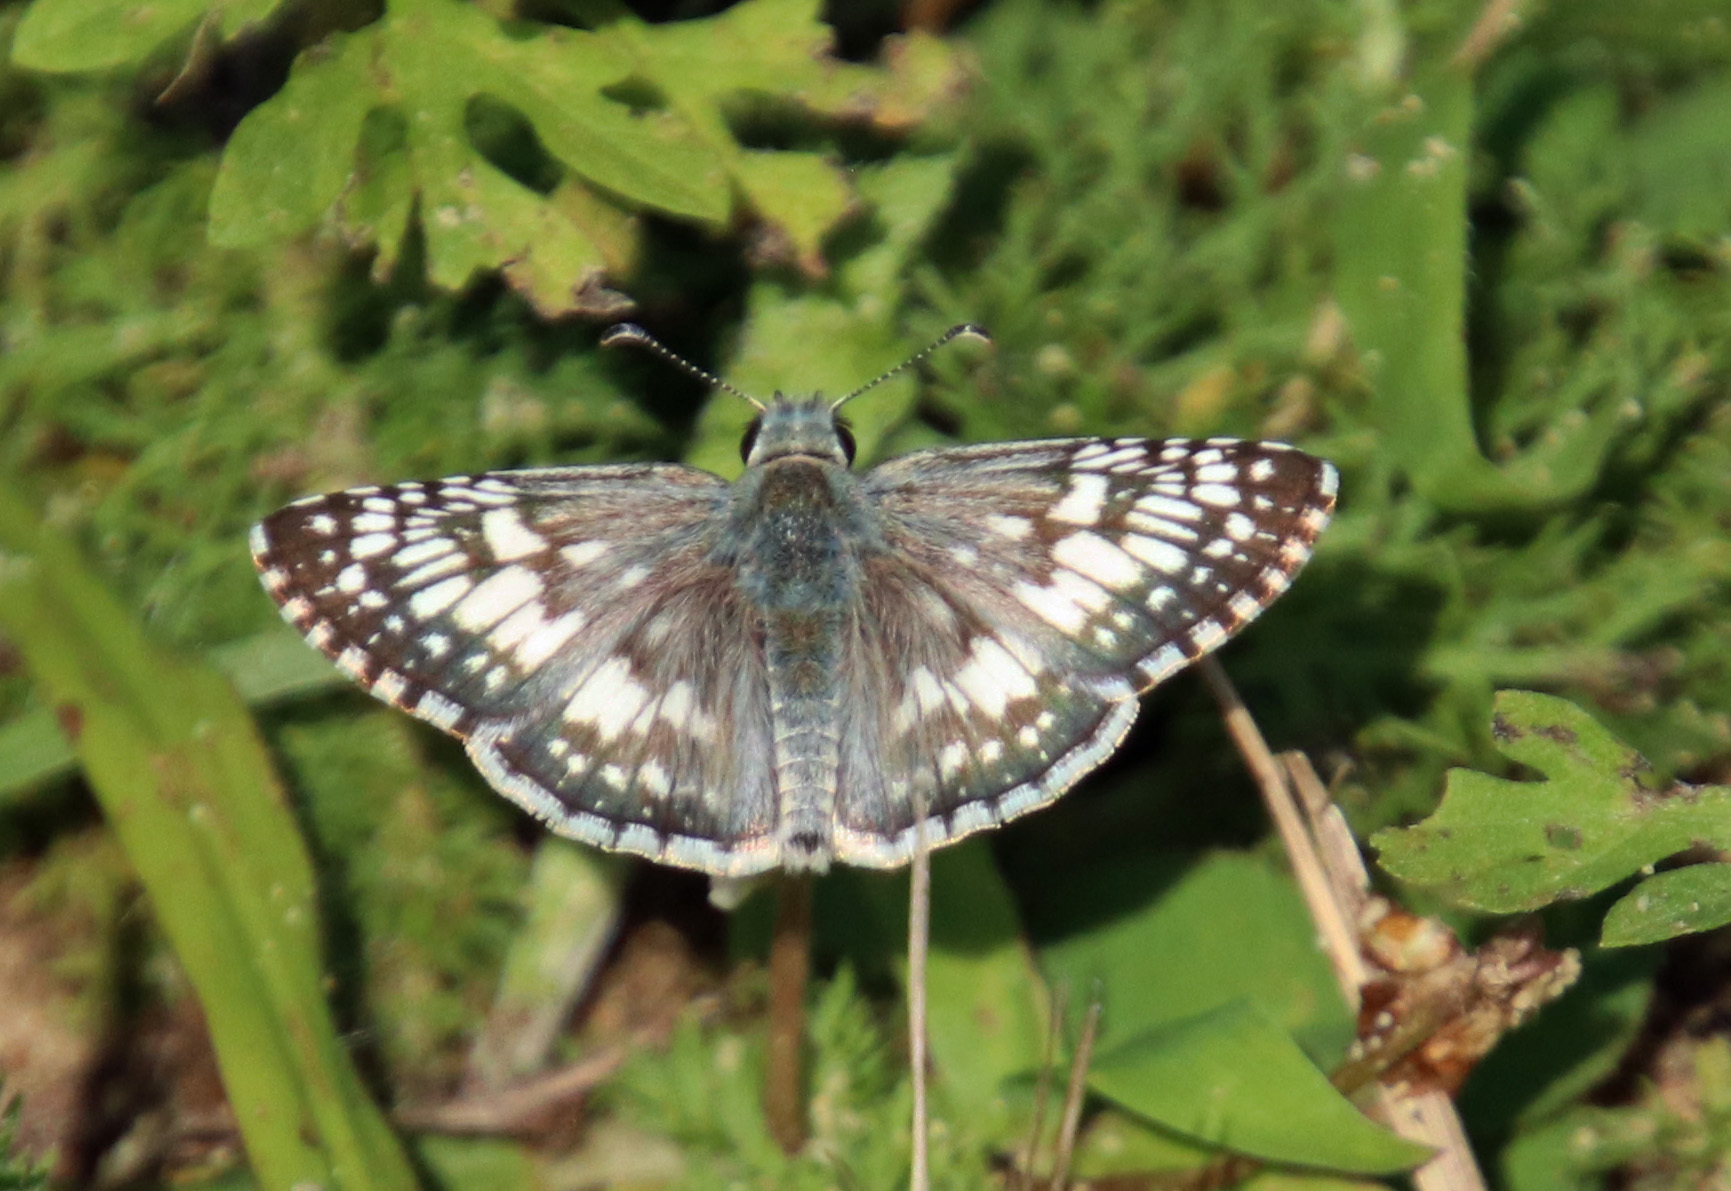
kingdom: Animalia
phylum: Arthropoda
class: Insecta
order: Lepidoptera
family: Hesperiidae
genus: Burnsius
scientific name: Burnsius communis
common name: Common checkered-skipper
